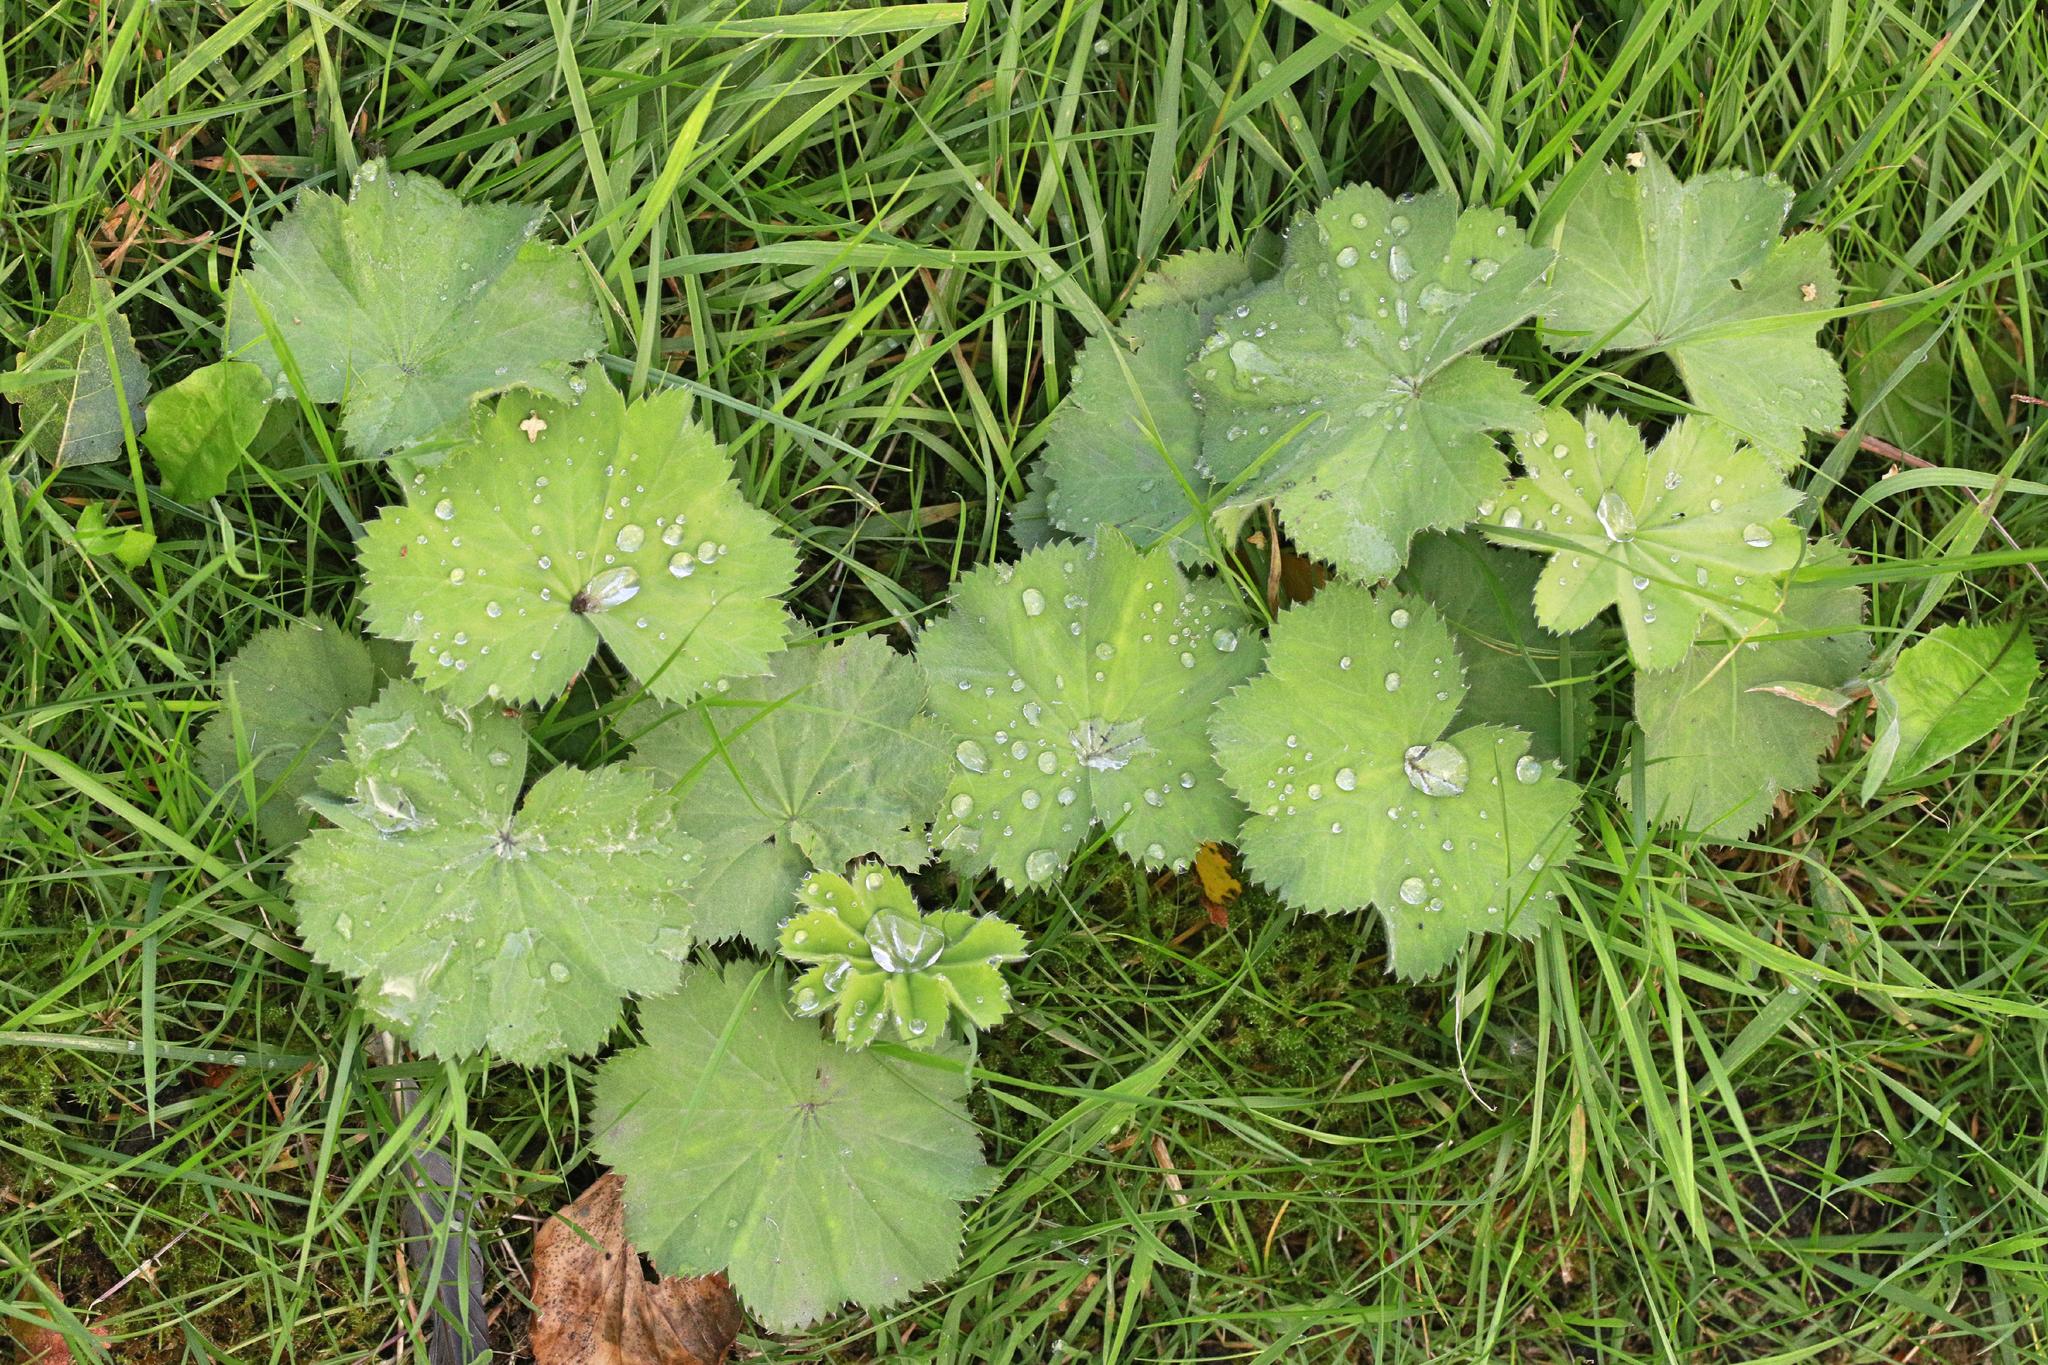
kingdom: Plantae
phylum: Tracheophyta
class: Magnoliopsida
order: Rosales
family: Rosaceae
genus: Alchemilla
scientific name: Alchemilla mollis
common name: Lady's-mantle
